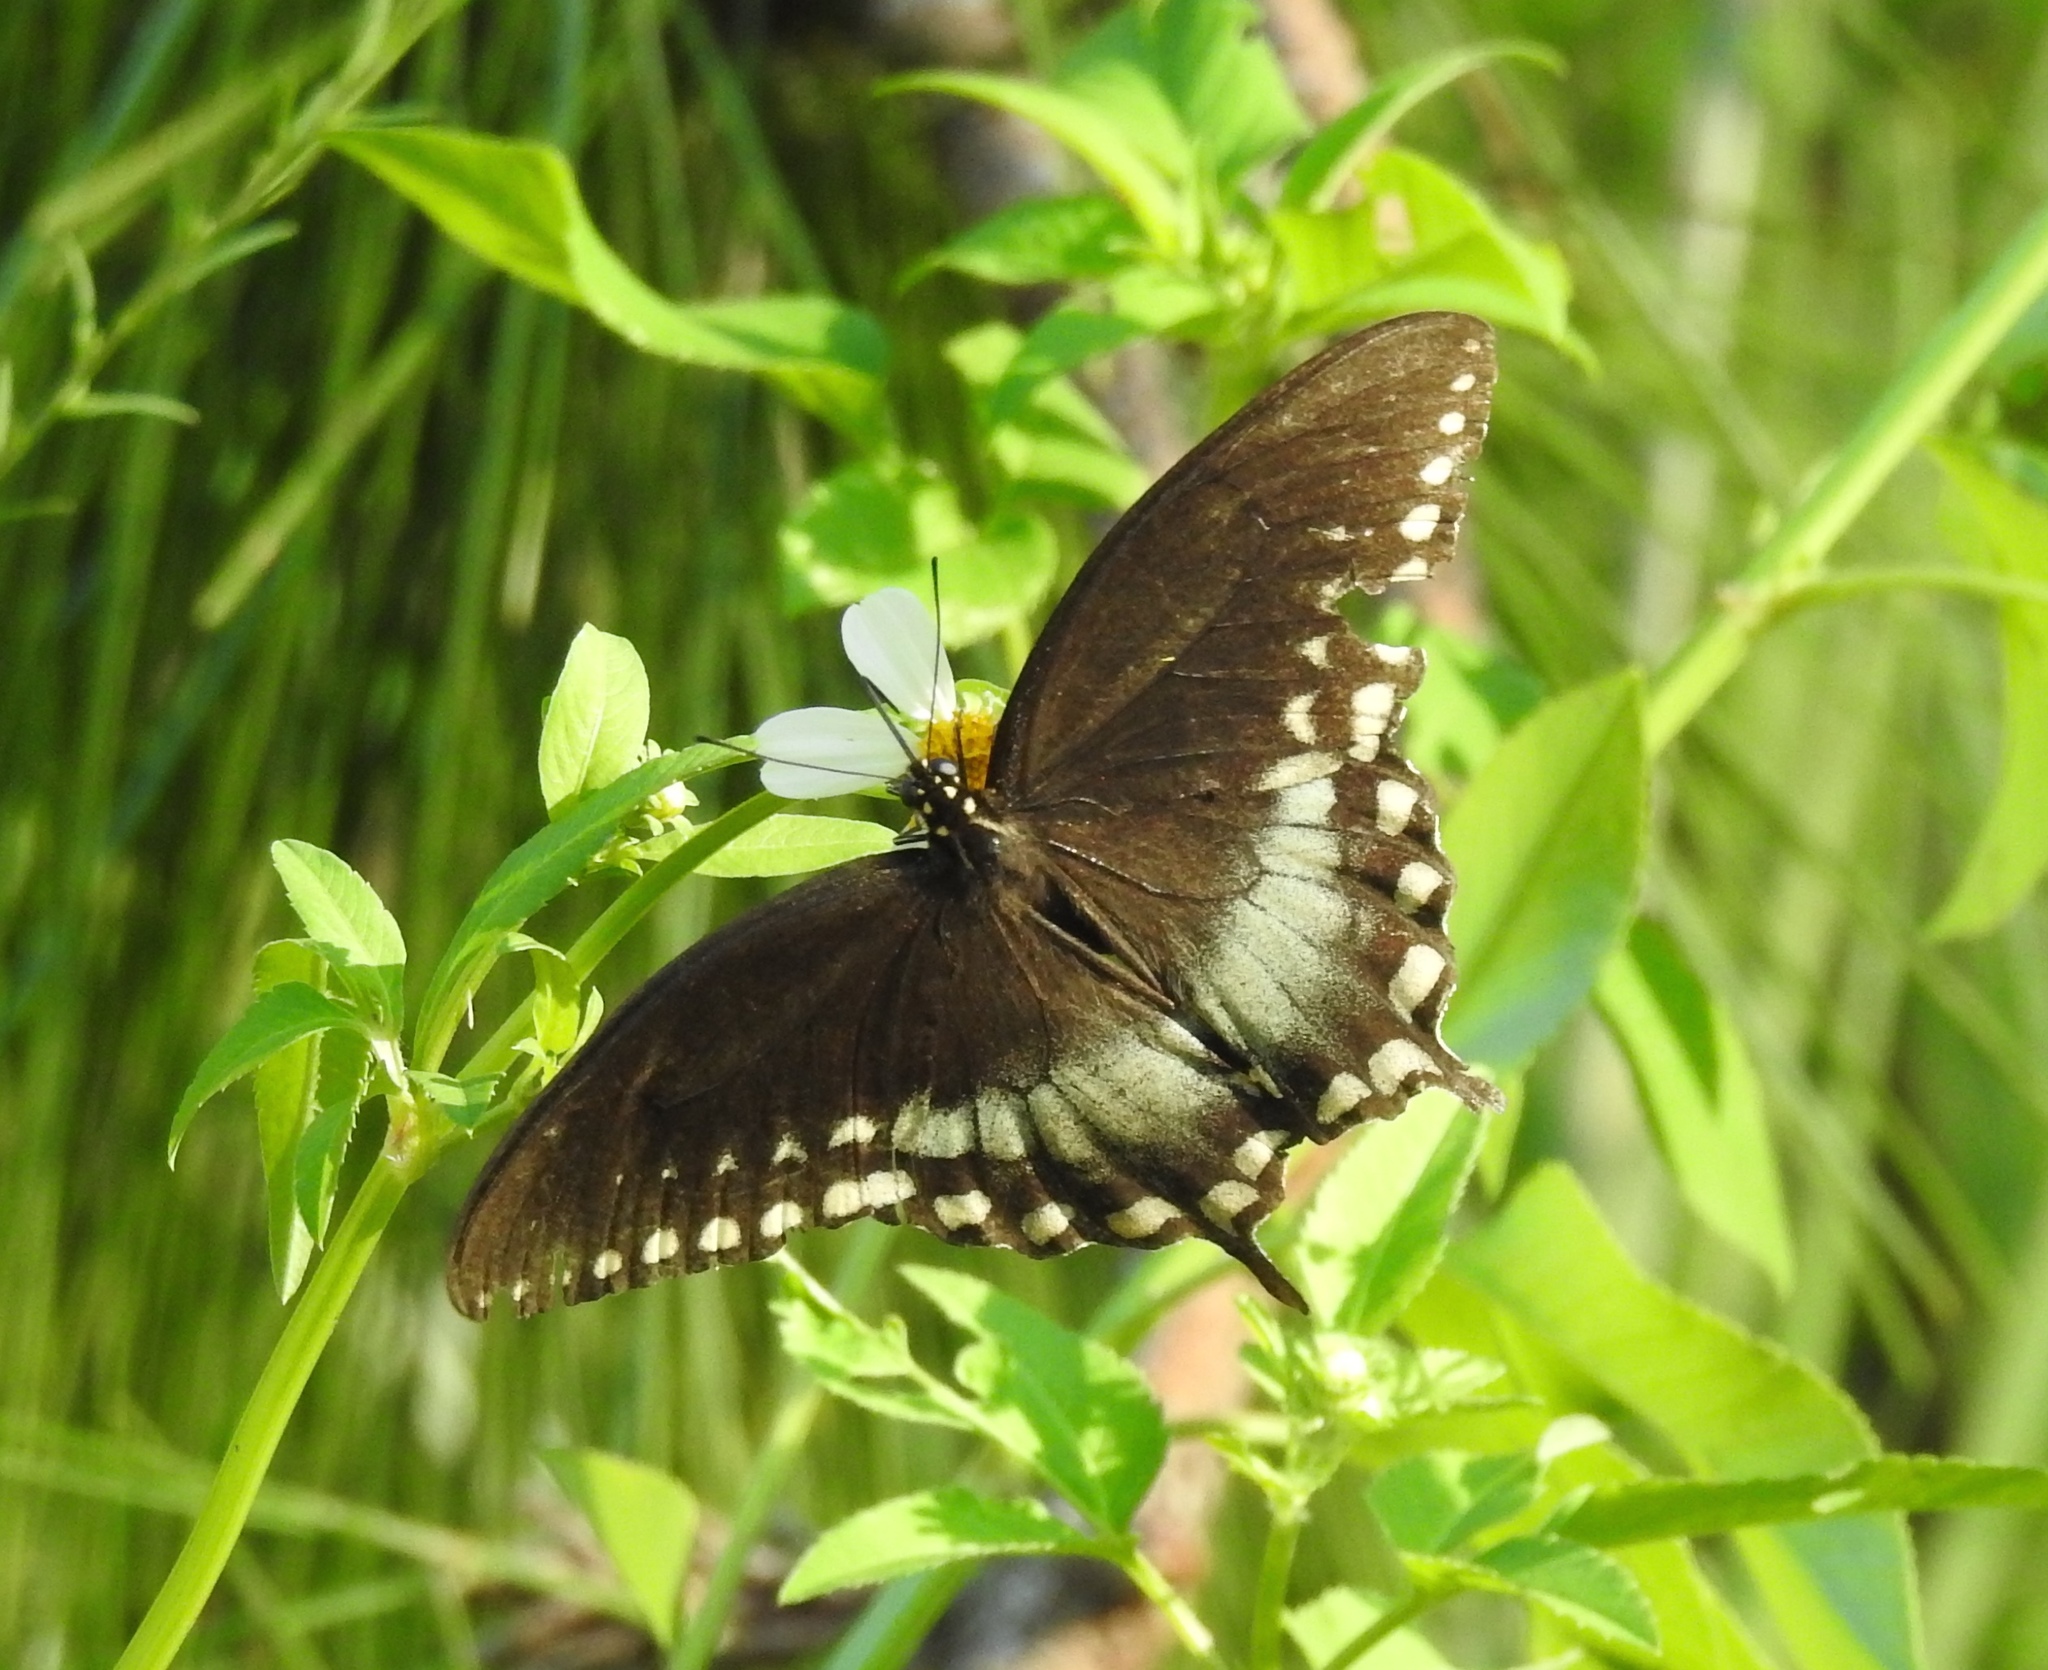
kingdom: Animalia
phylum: Arthropoda
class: Insecta
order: Lepidoptera
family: Papilionidae
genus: Papilio
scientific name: Papilio troilus
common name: Spicebush swallowtail
